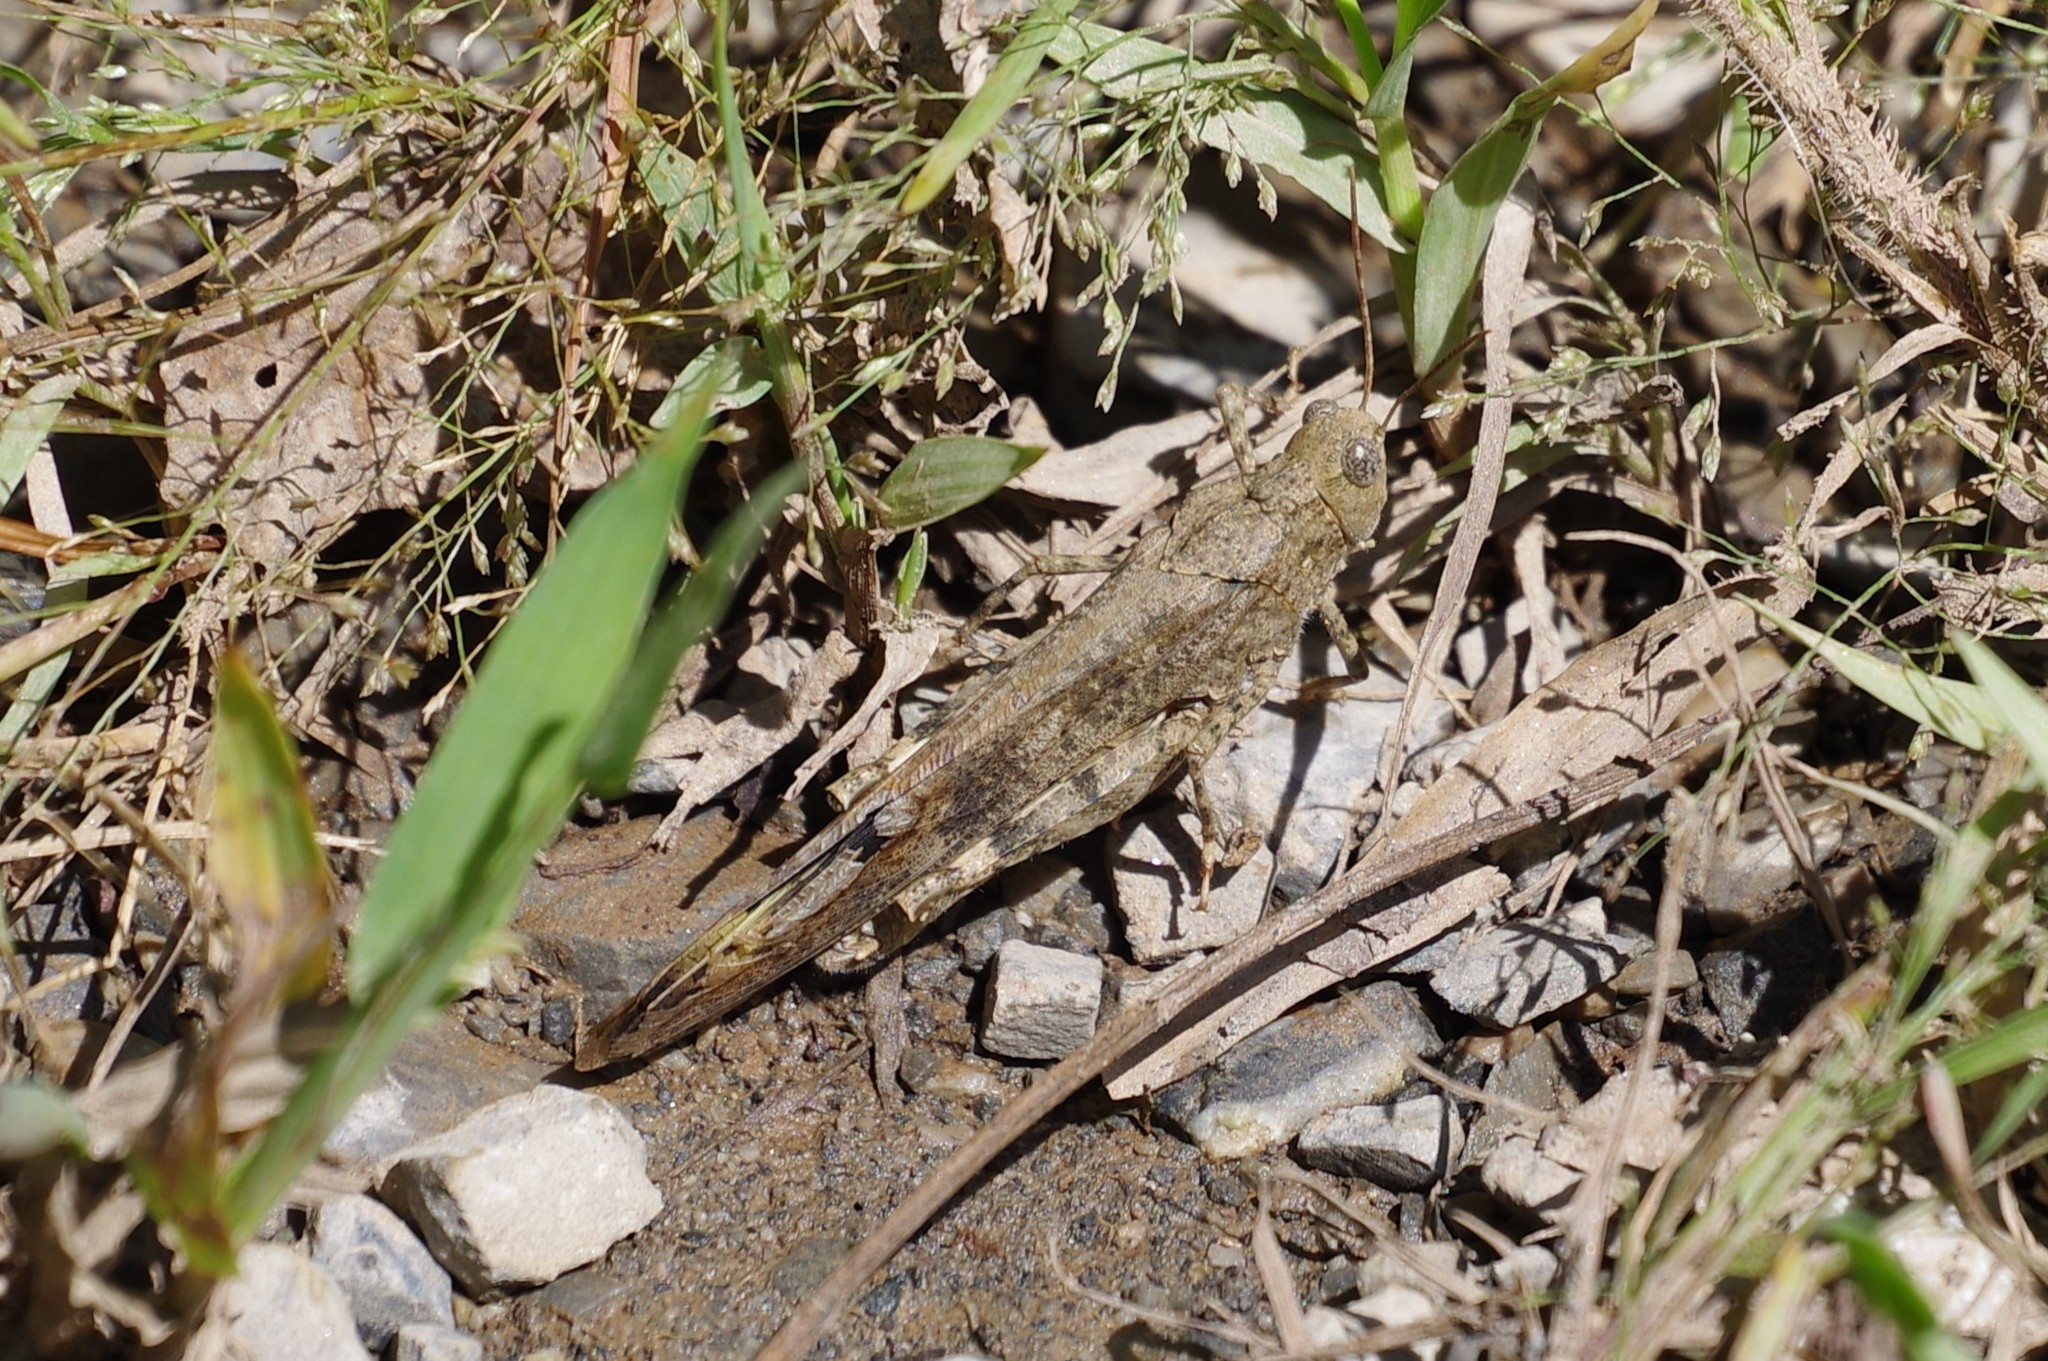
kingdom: Animalia
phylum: Arthropoda
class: Insecta
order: Orthoptera
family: Acrididae
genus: Dissosteira
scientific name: Dissosteira carolina
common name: Carolina grasshopper
